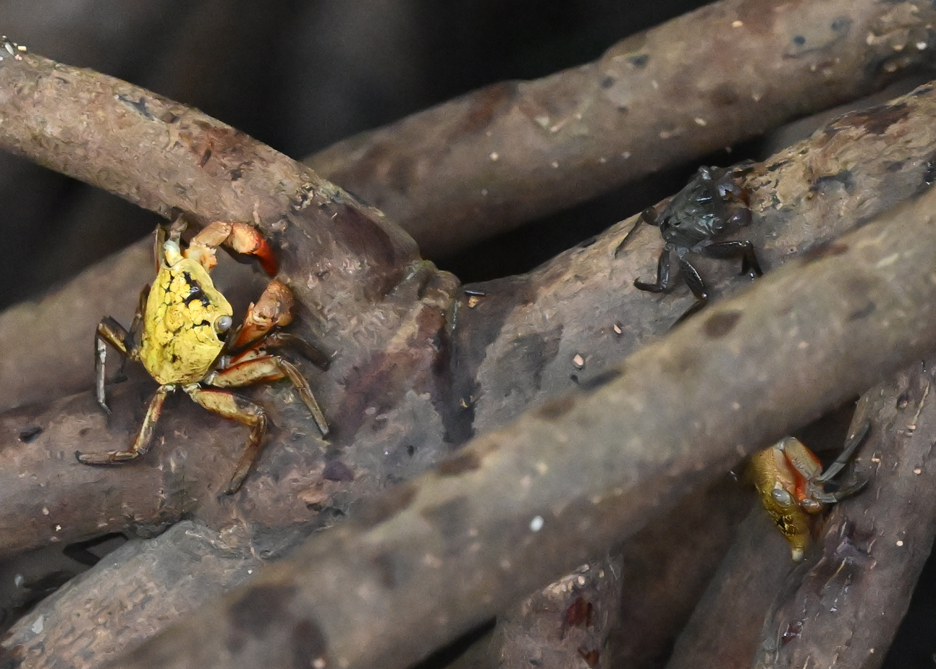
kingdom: Animalia
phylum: Arthropoda
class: Malacostraca
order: Decapoda
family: Sesarmidae
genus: Aratus
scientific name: Aratus pisonii
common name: Mangrove crab
